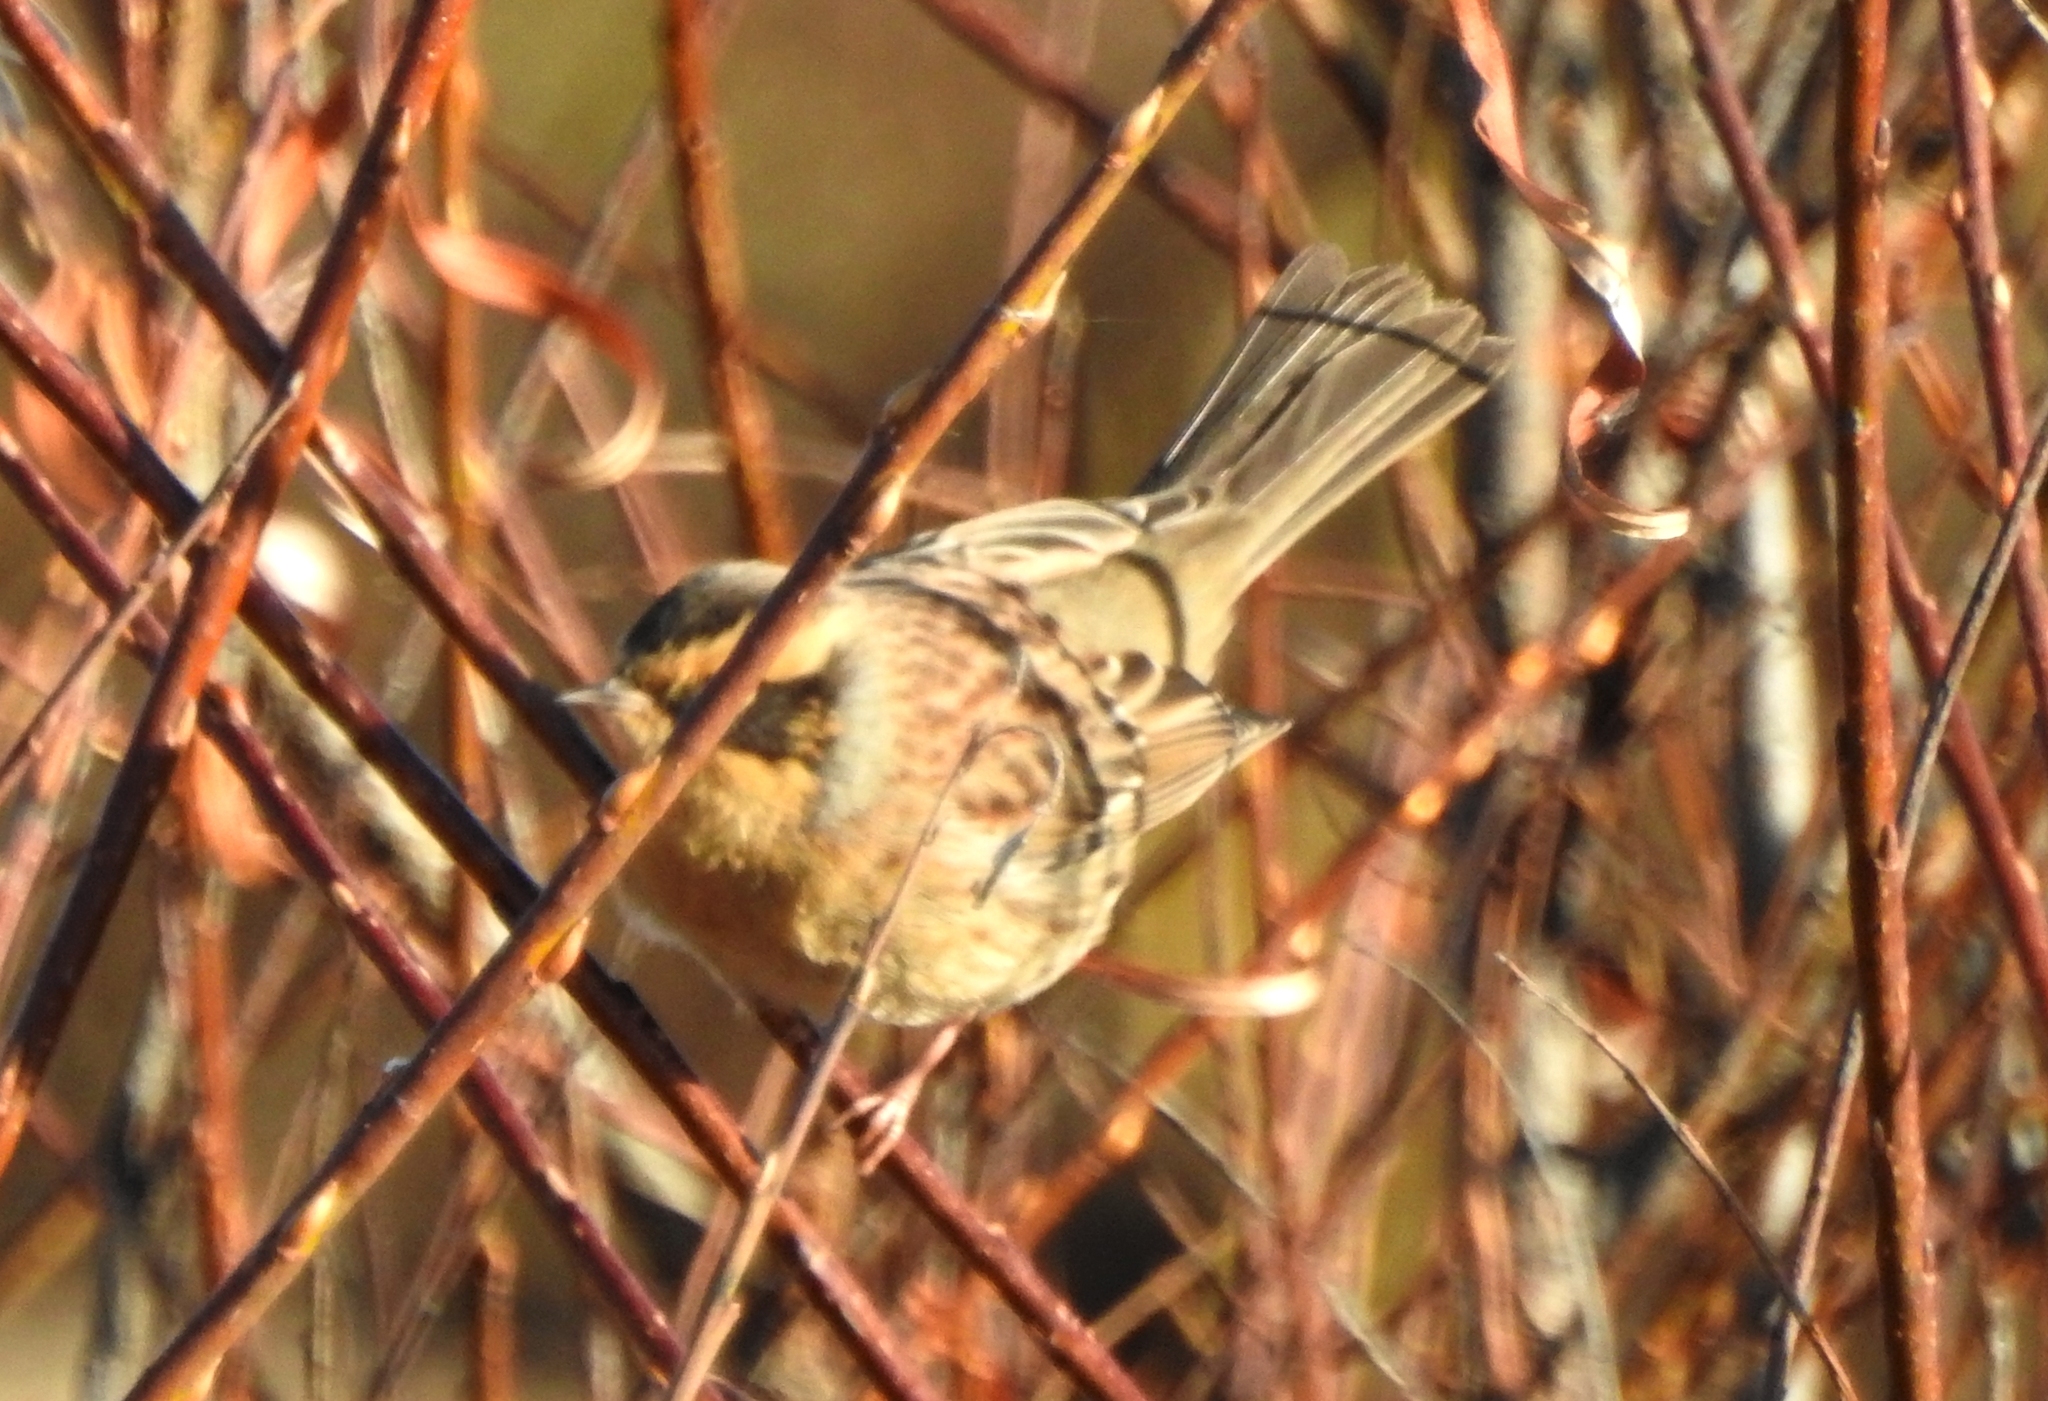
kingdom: Animalia
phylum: Chordata
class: Aves
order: Passeriformes
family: Prunellidae
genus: Prunella
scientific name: Prunella montanella
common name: Siberian accentor
